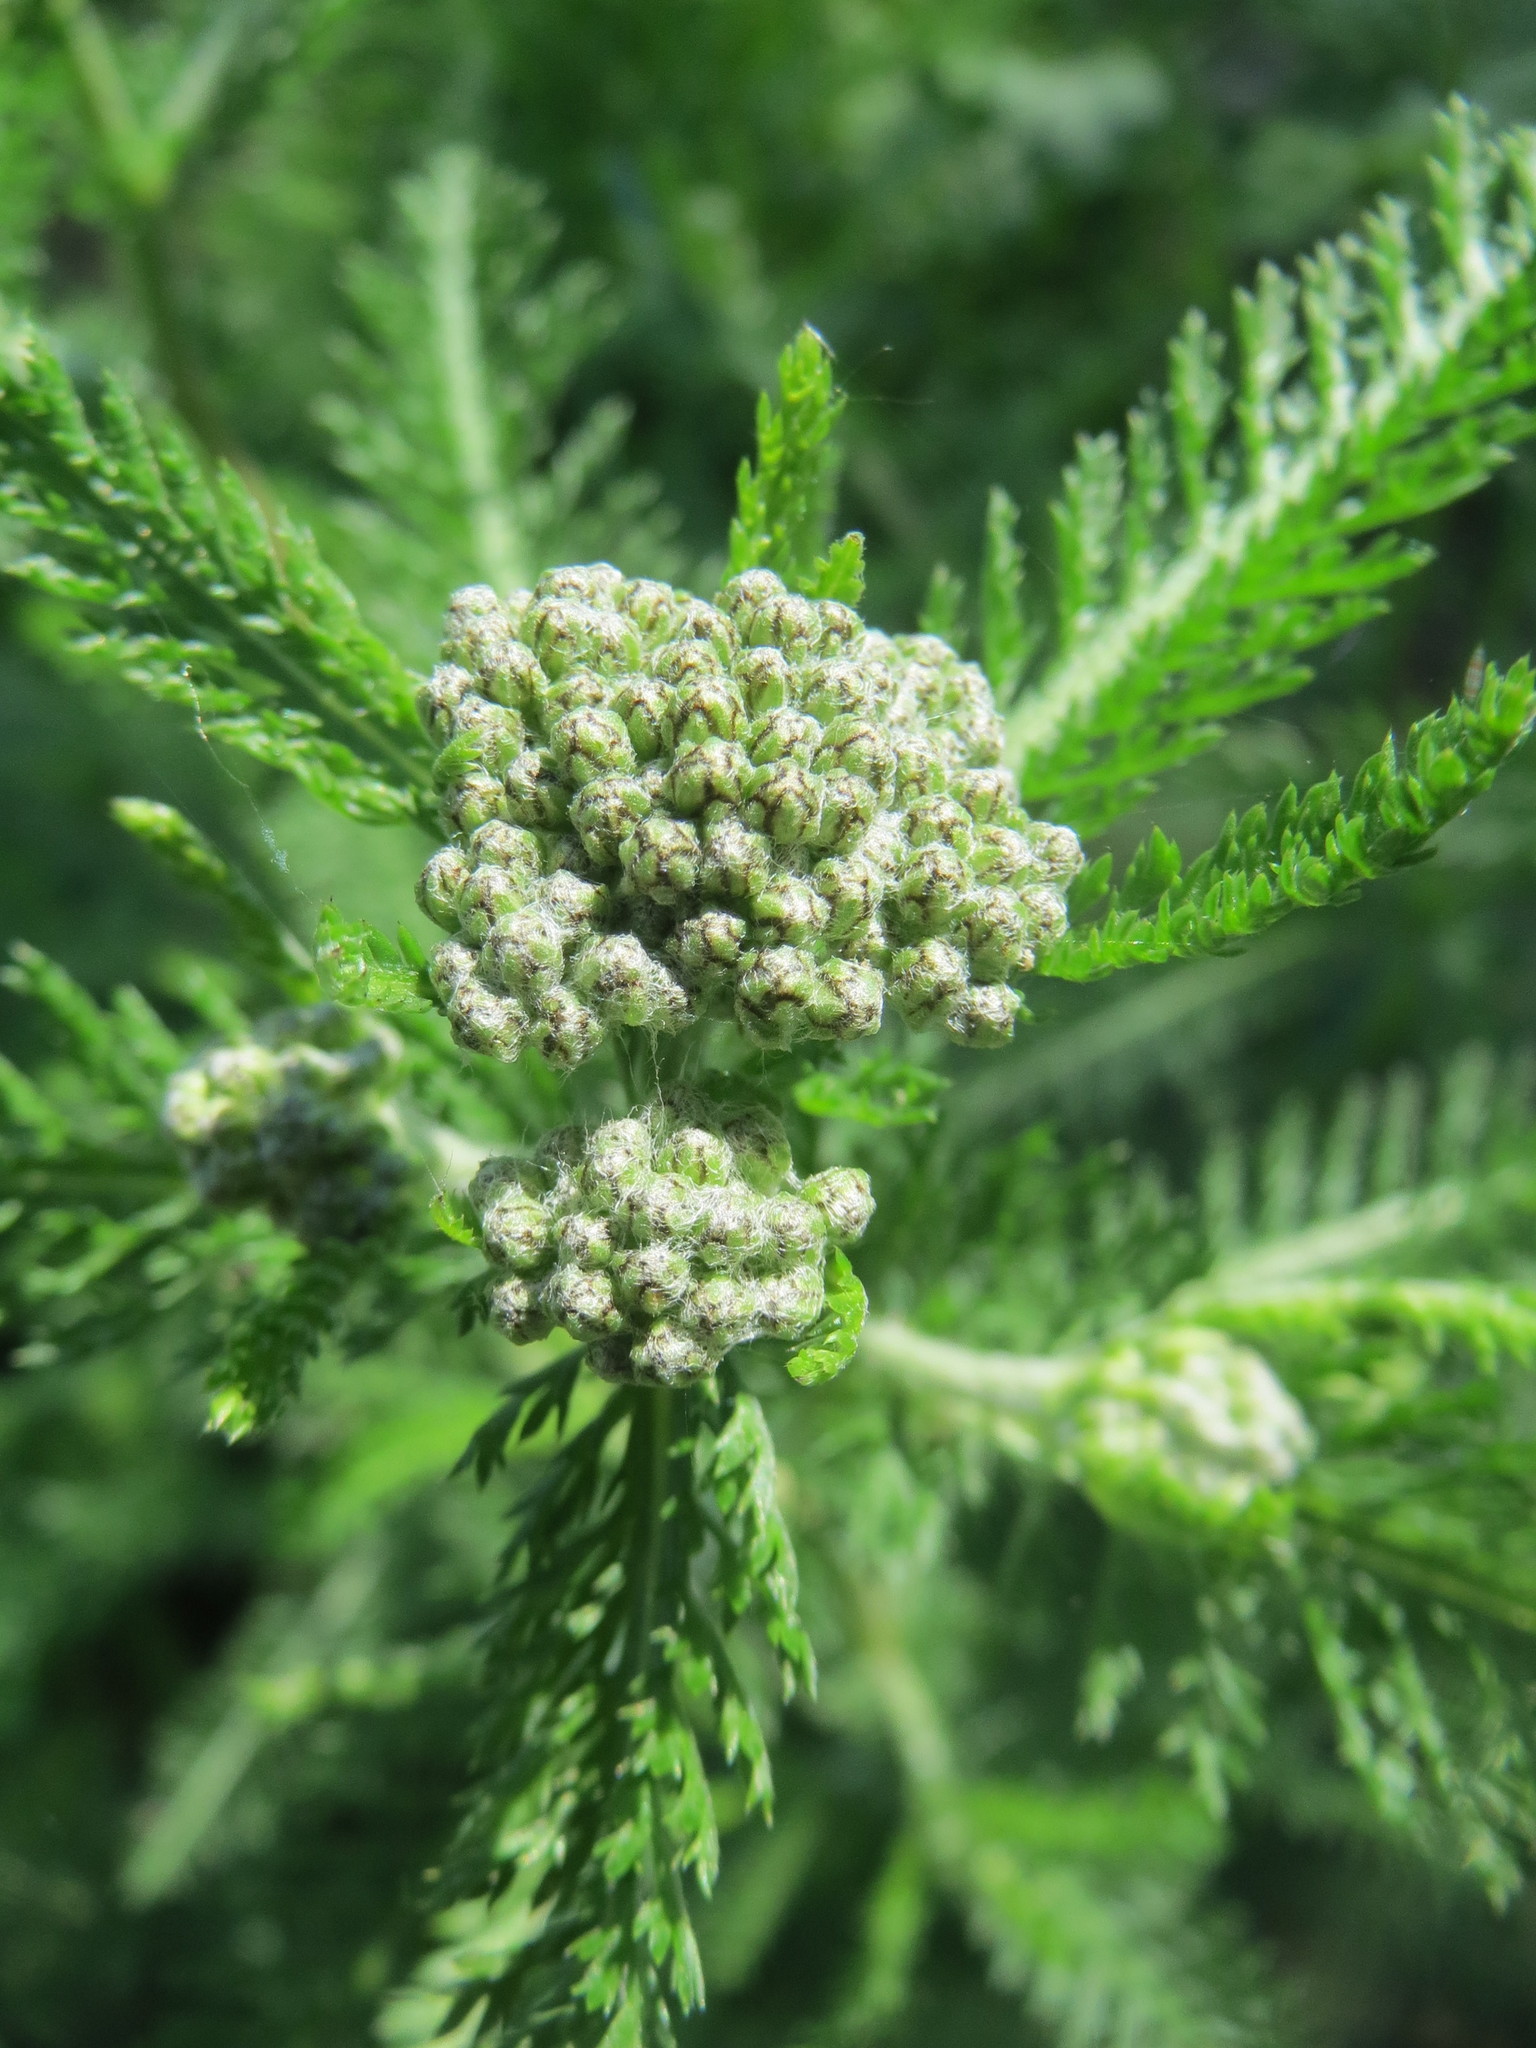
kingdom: Plantae
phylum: Tracheophyta
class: Magnoliopsida
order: Asterales
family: Asteraceae
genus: Achillea
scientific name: Achillea millefolium
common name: Yarrow
